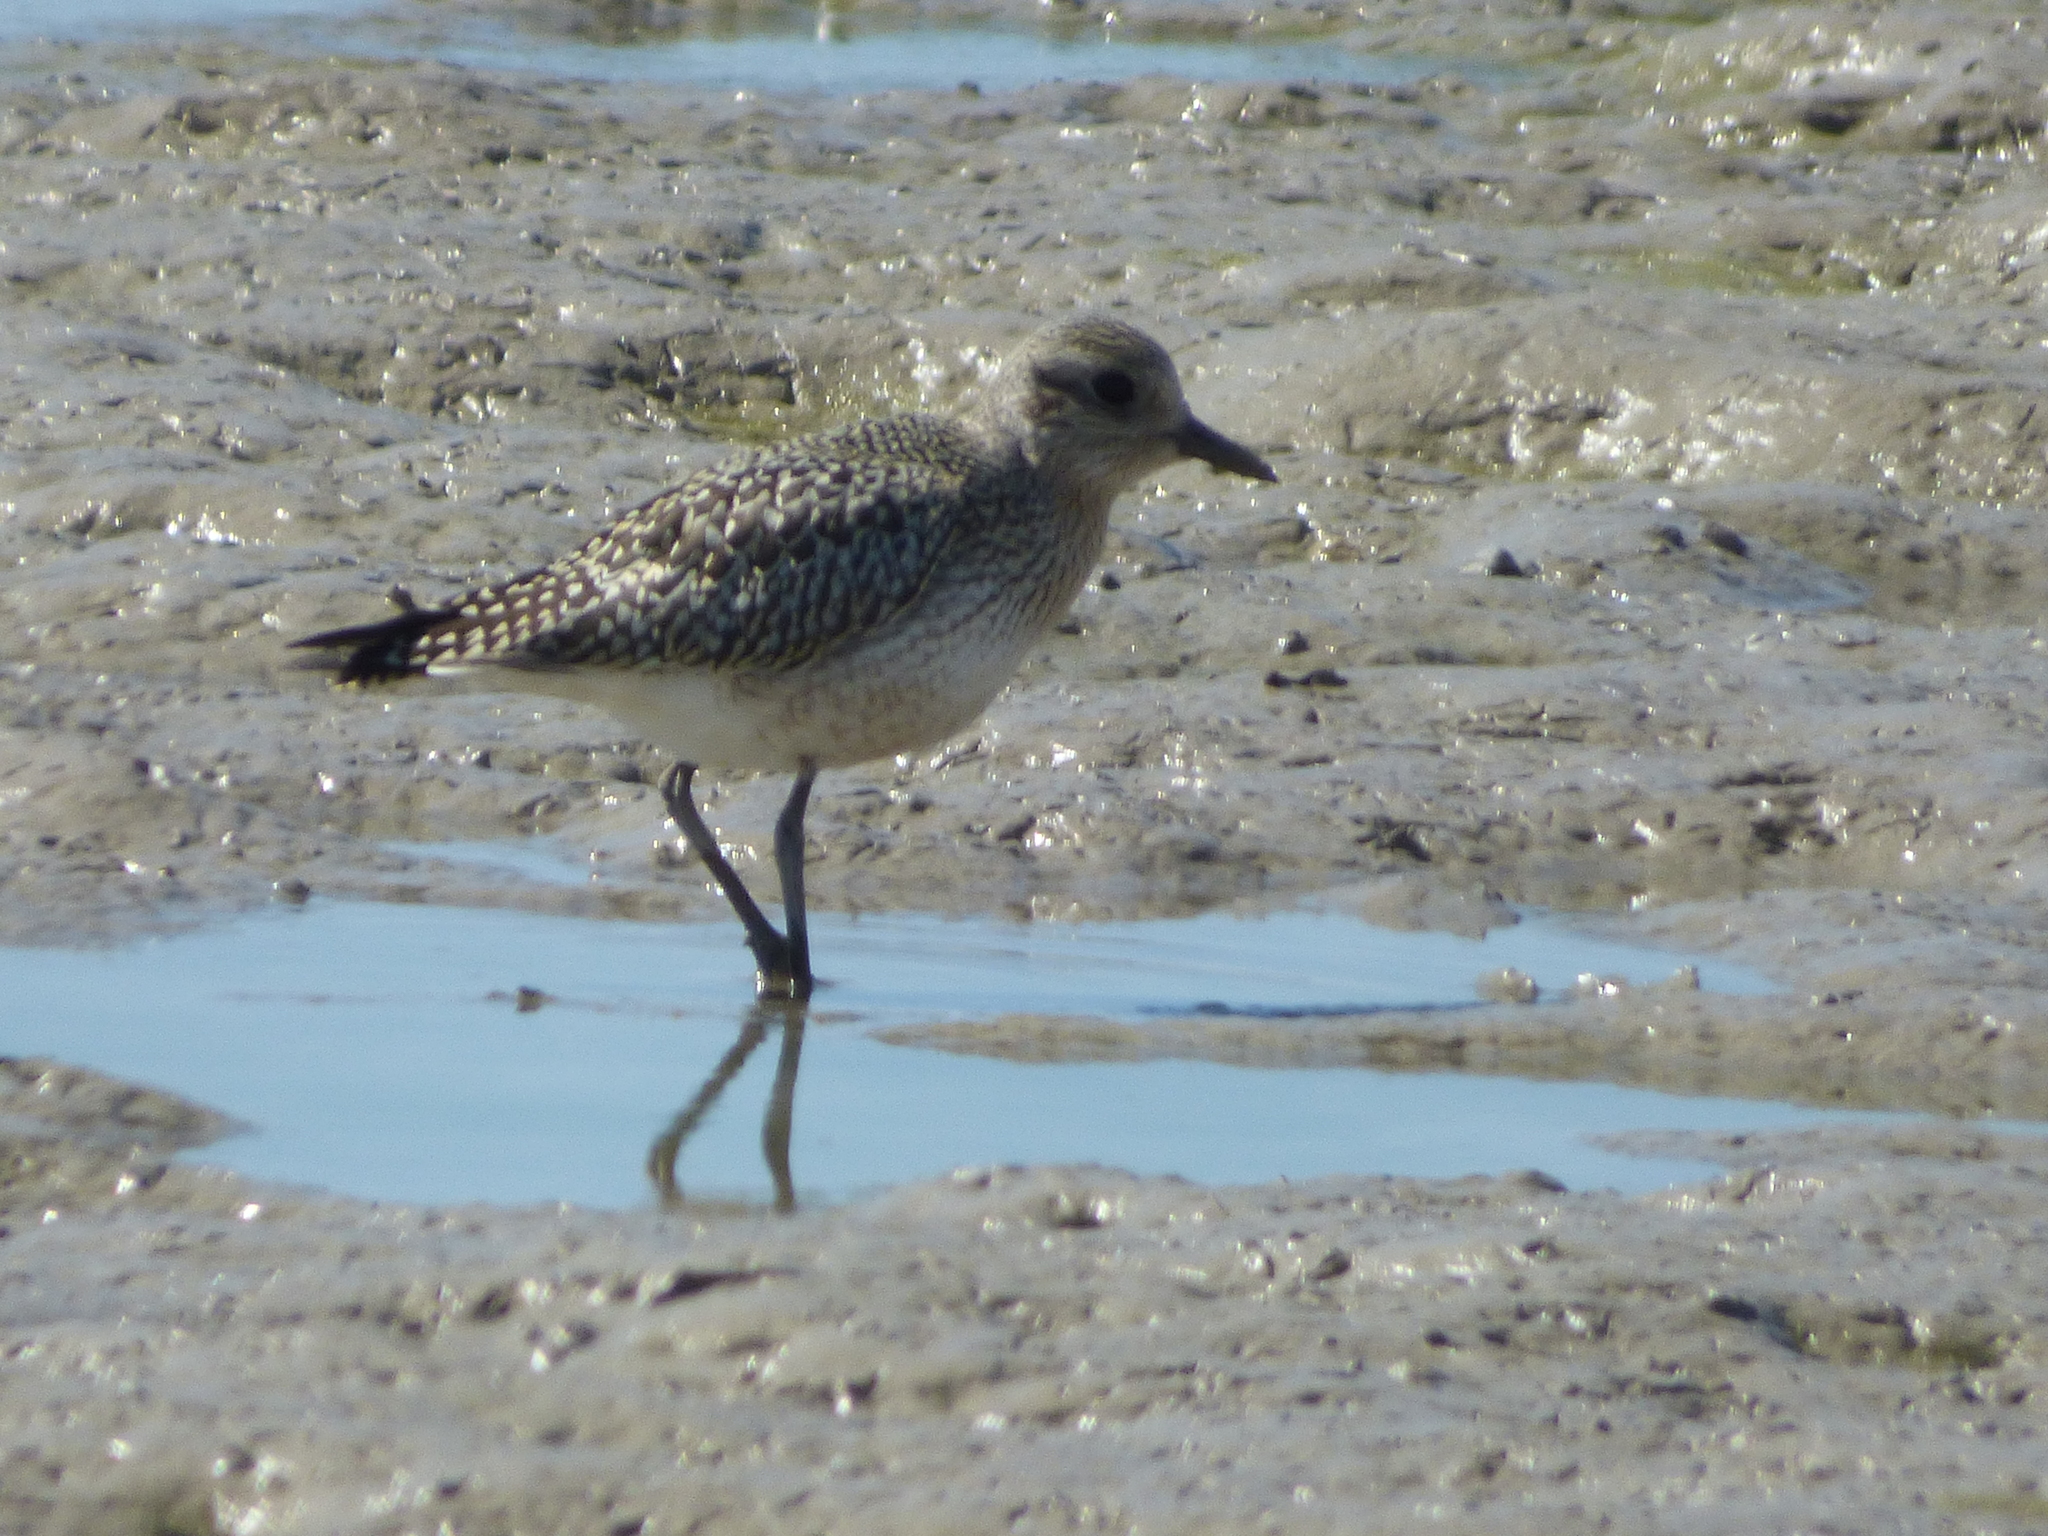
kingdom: Animalia
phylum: Chordata
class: Aves
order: Charadriiformes
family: Charadriidae
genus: Pluvialis
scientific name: Pluvialis squatarola
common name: Grey plover
